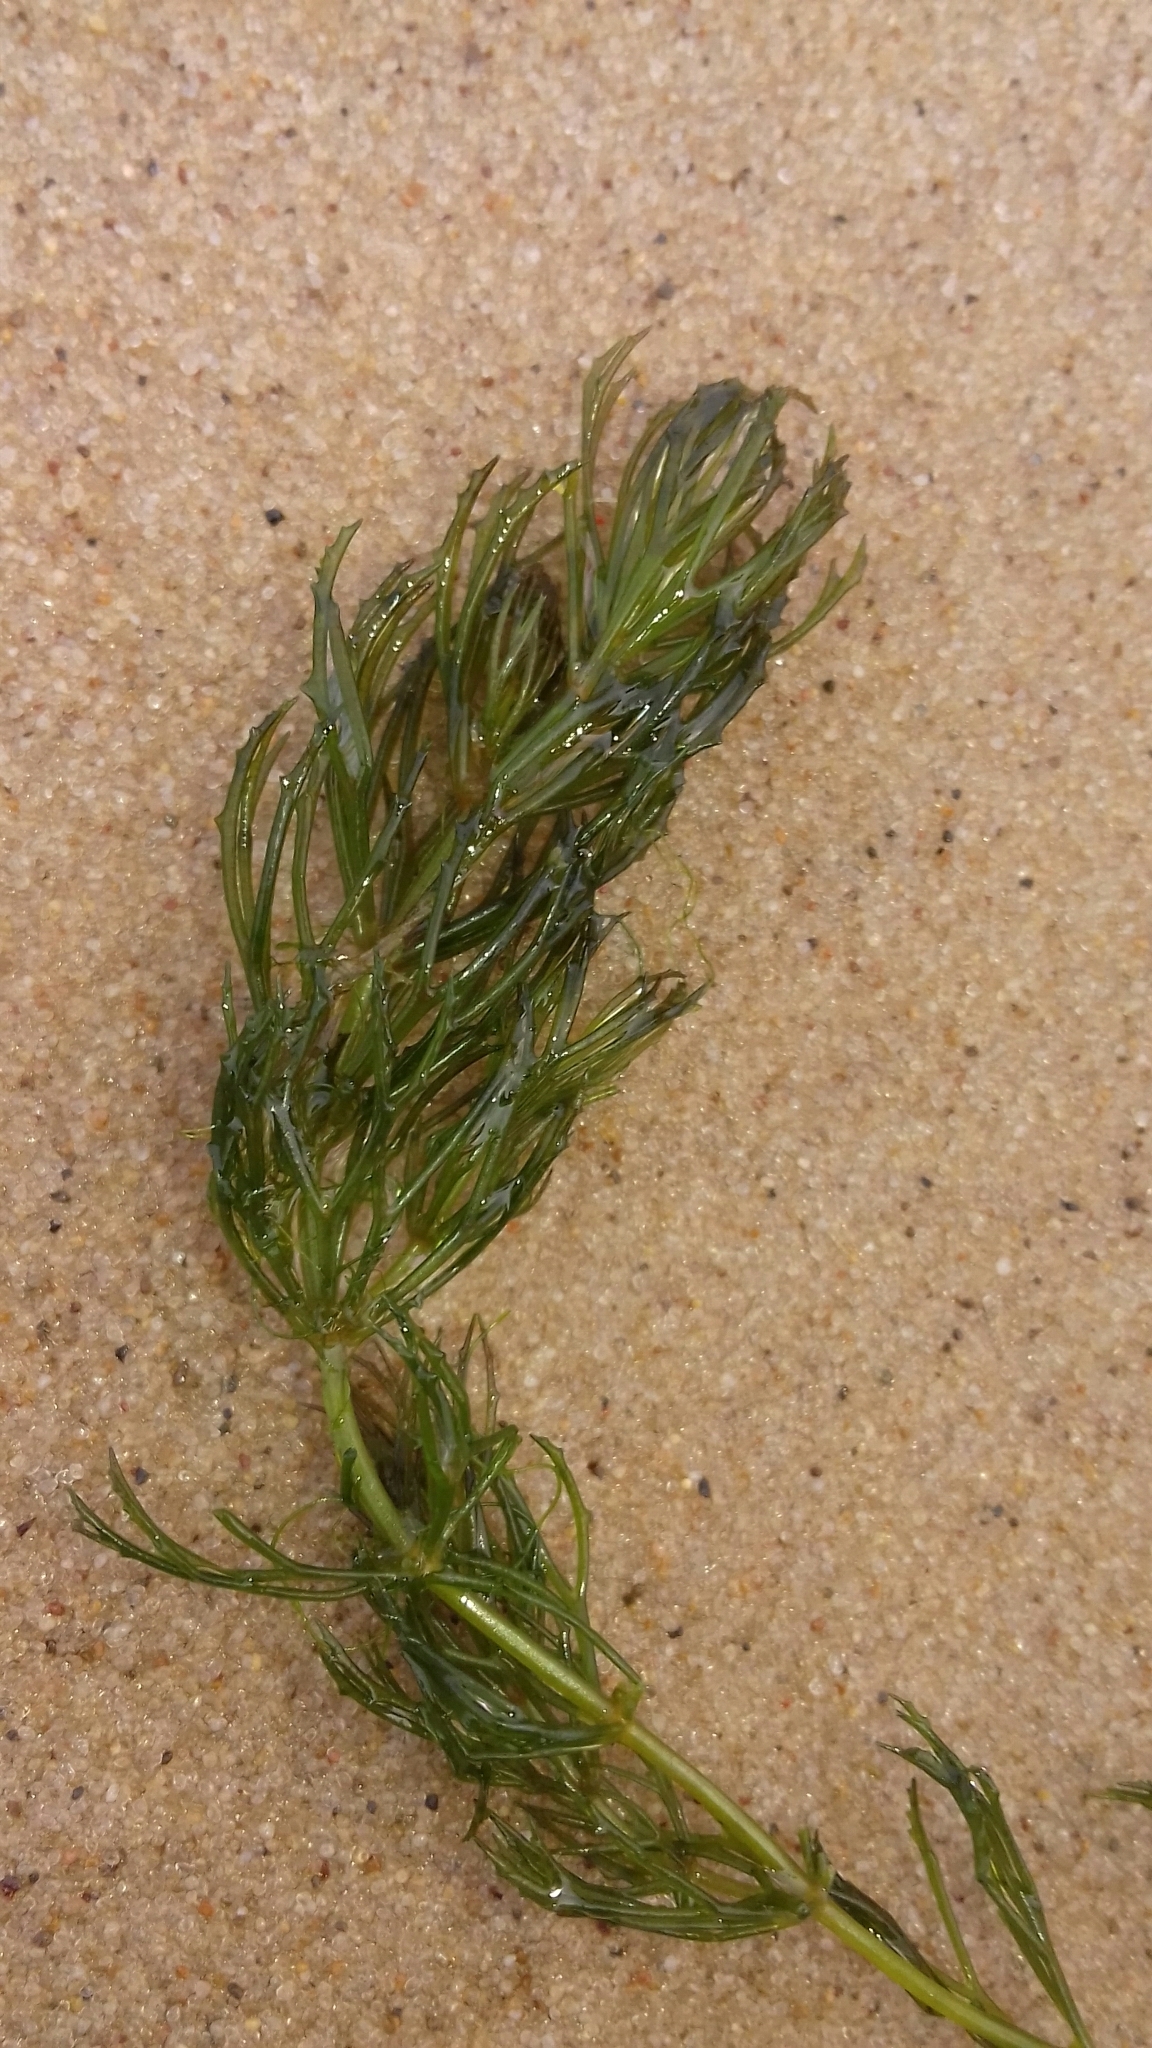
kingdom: Plantae
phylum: Tracheophyta
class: Magnoliopsida
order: Ceratophyllales
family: Ceratophyllaceae
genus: Ceratophyllum
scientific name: Ceratophyllum demersum
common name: Rigid hornwort
